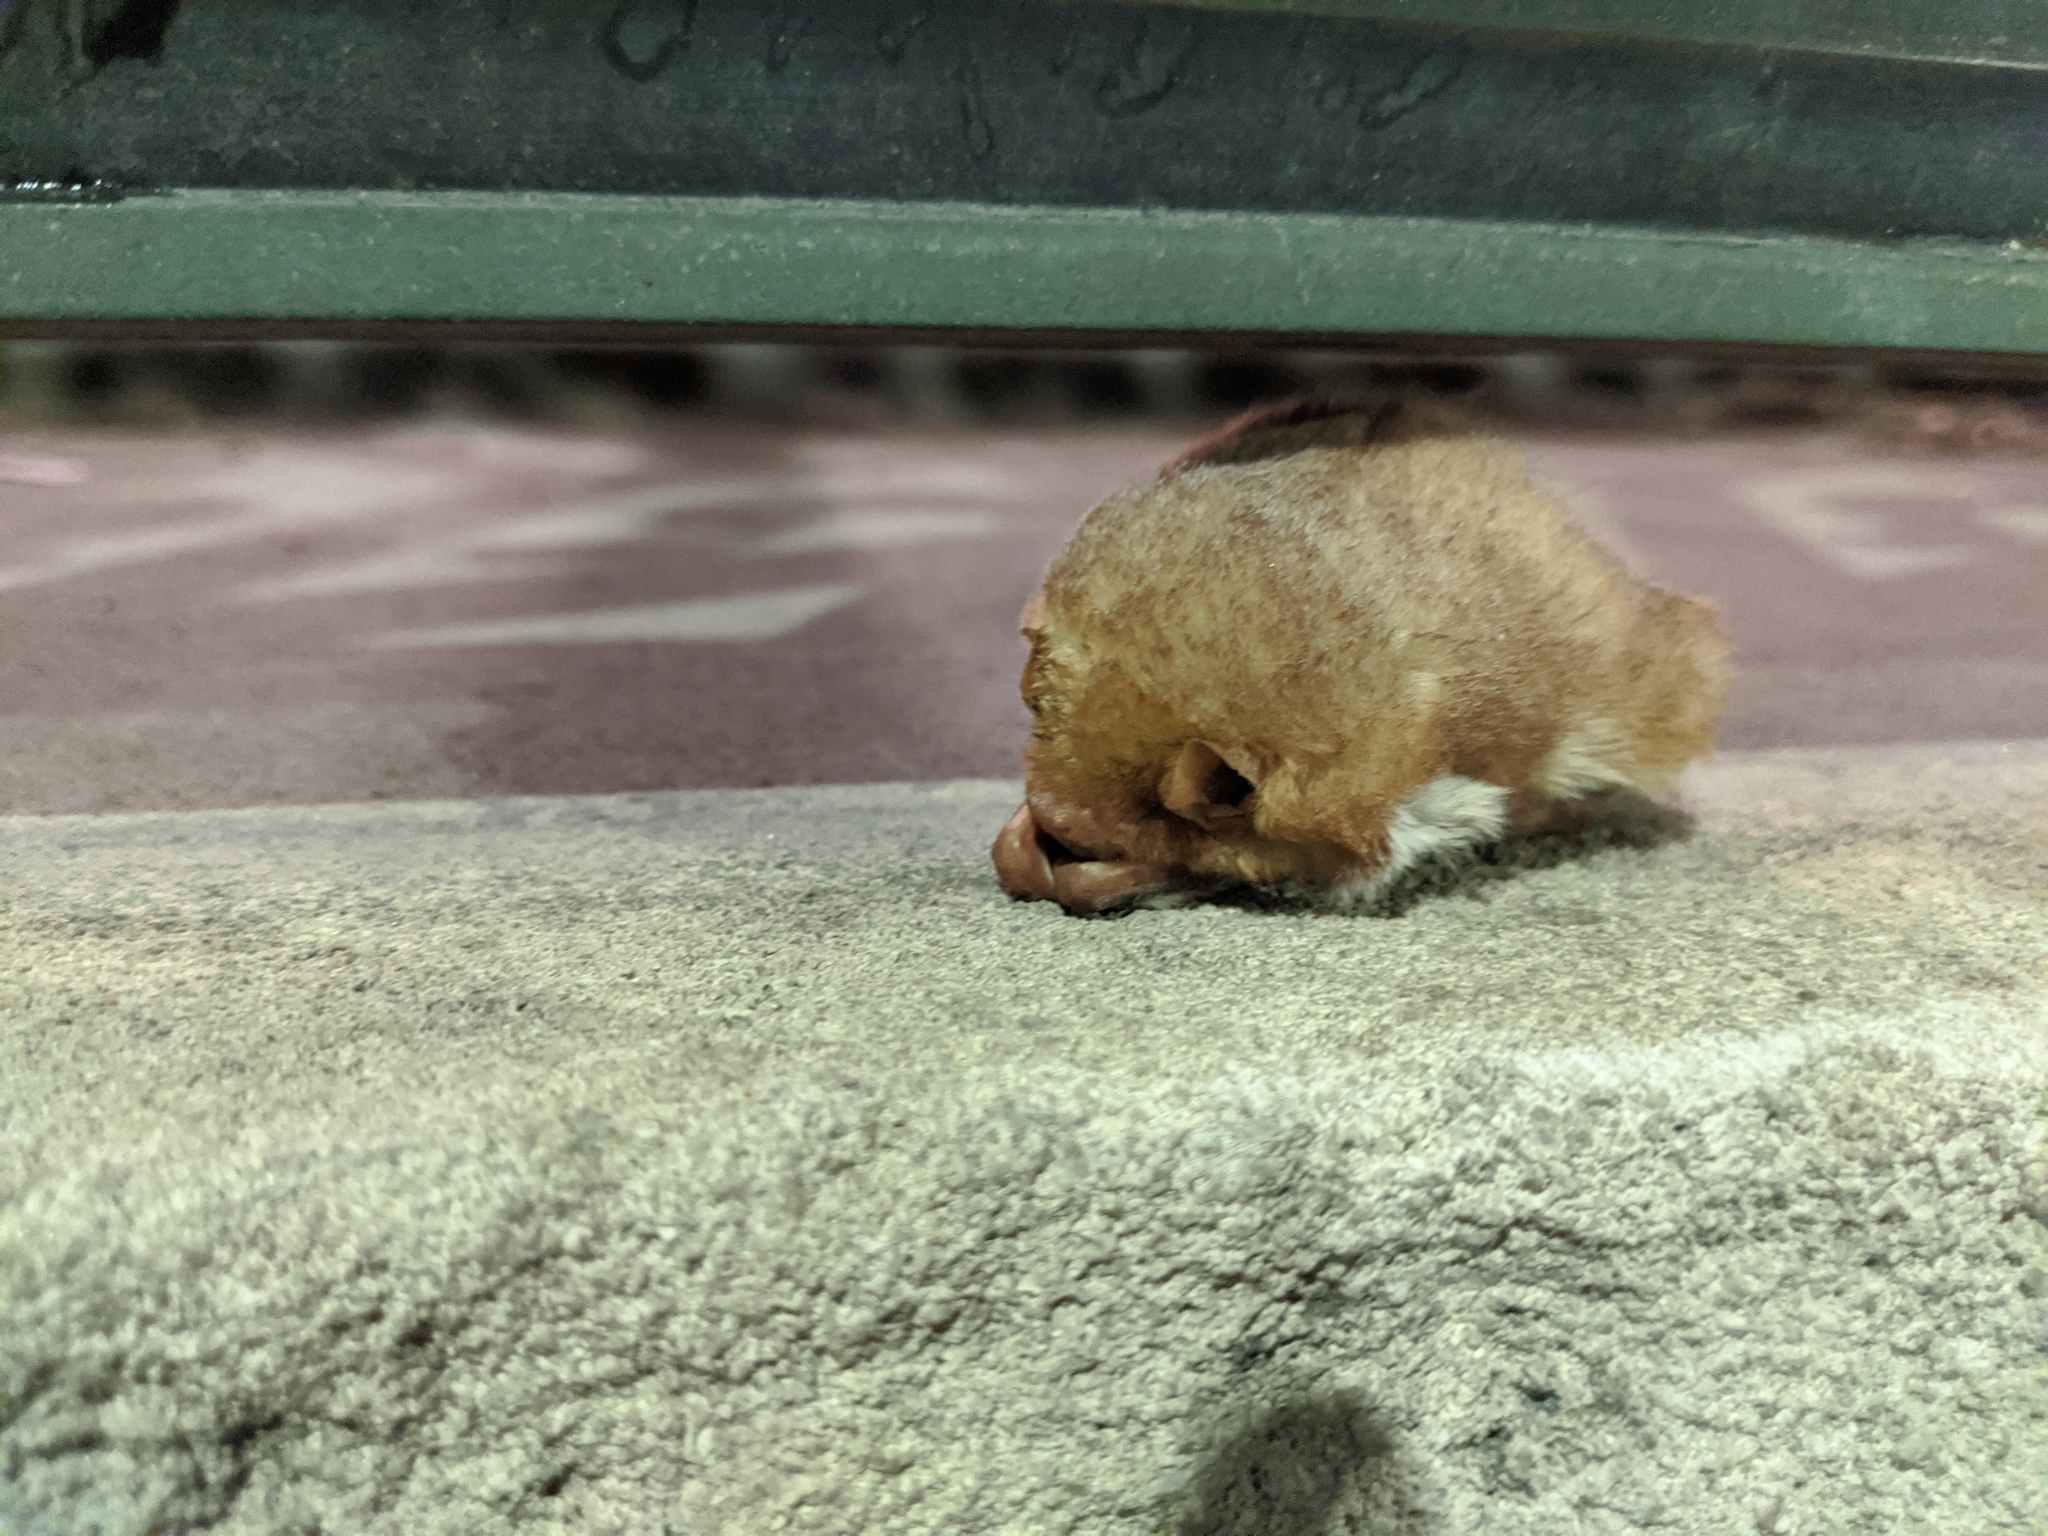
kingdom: Animalia
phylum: Chordata
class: Mammalia
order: Chiroptera
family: Vespertilionidae
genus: Lasiurus
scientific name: Lasiurus borealis
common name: Eastern red bat
